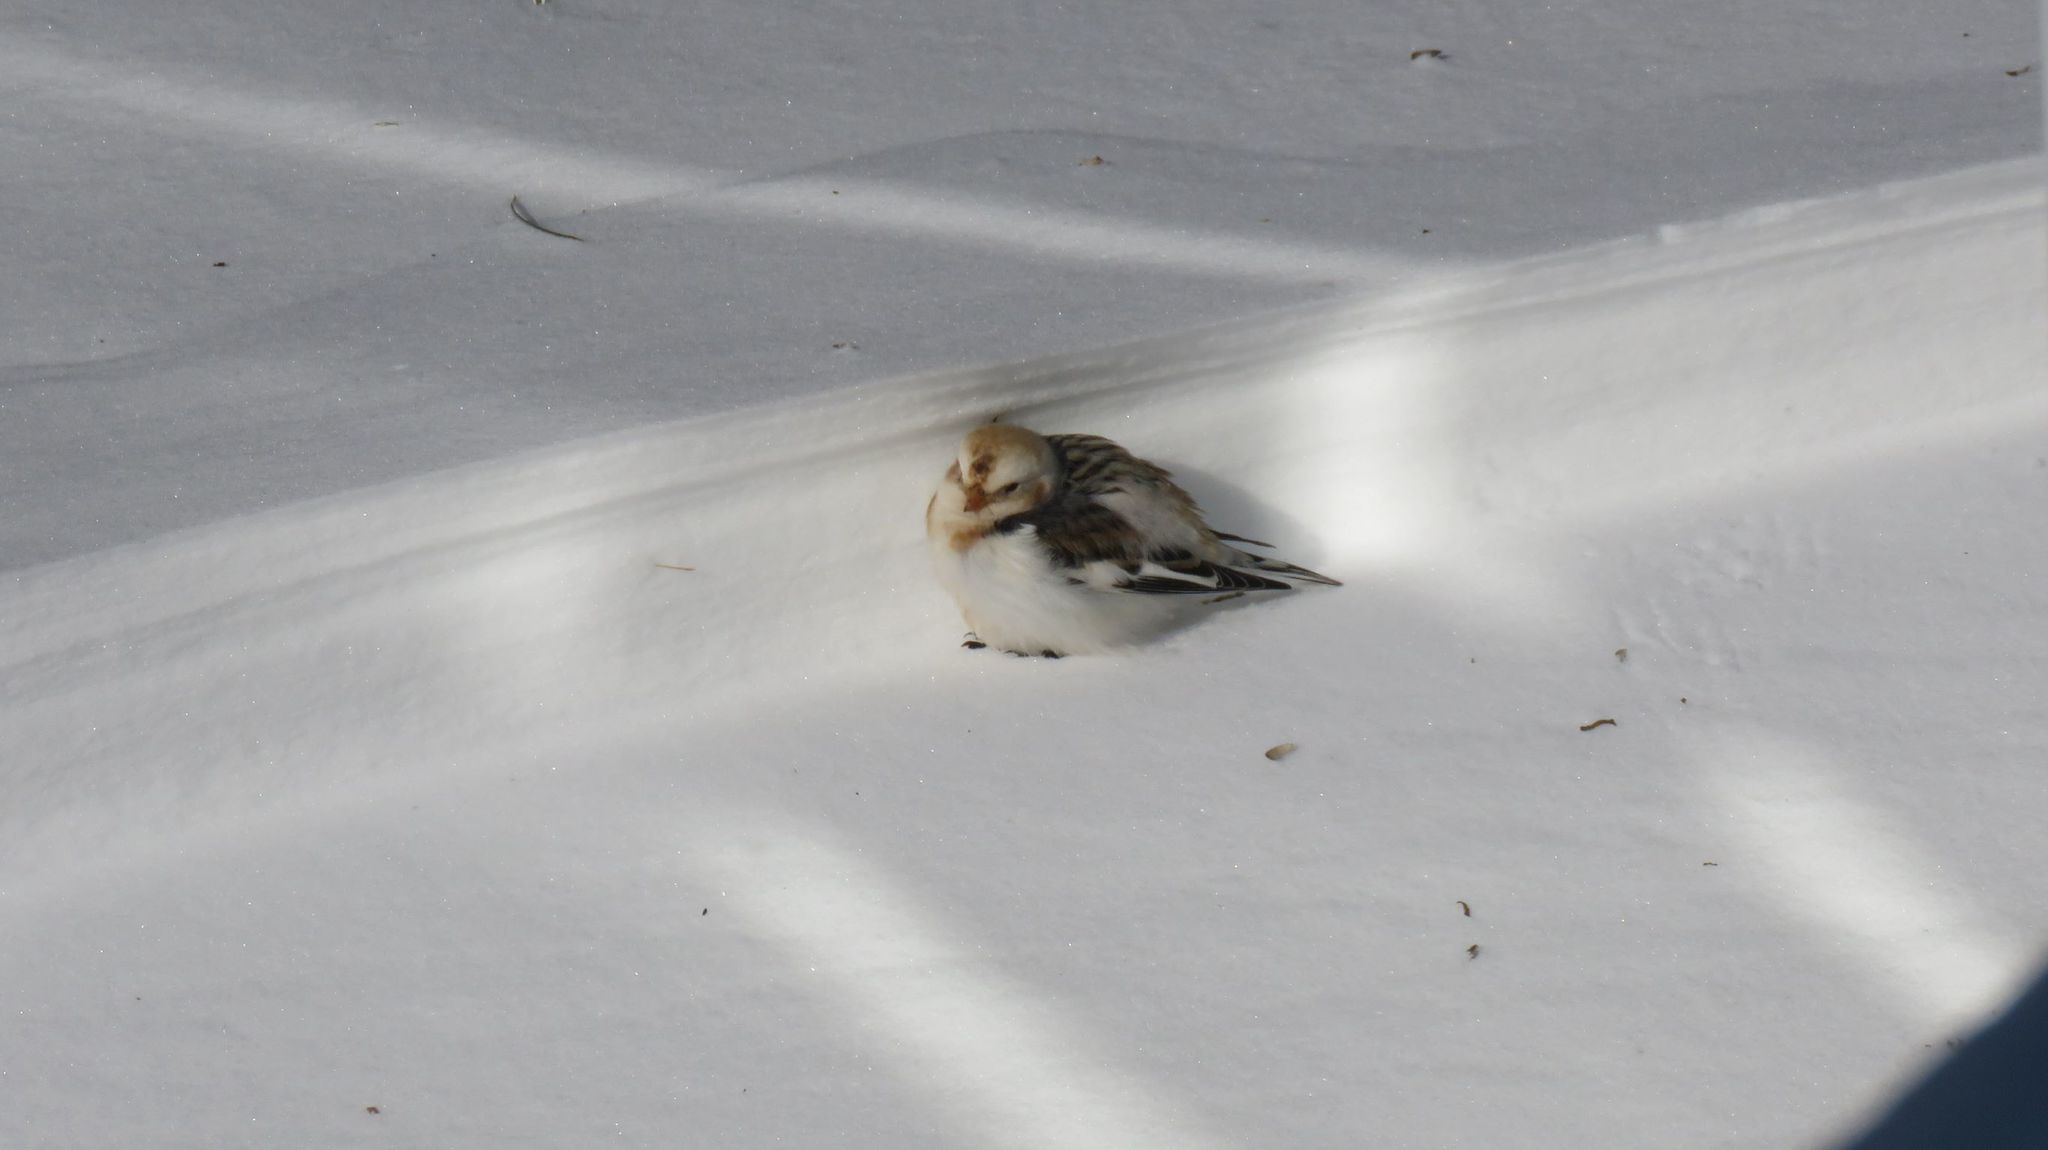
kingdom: Animalia
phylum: Chordata
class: Aves
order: Passeriformes
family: Calcariidae
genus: Plectrophenax
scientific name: Plectrophenax nivalis
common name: Snow bunting
